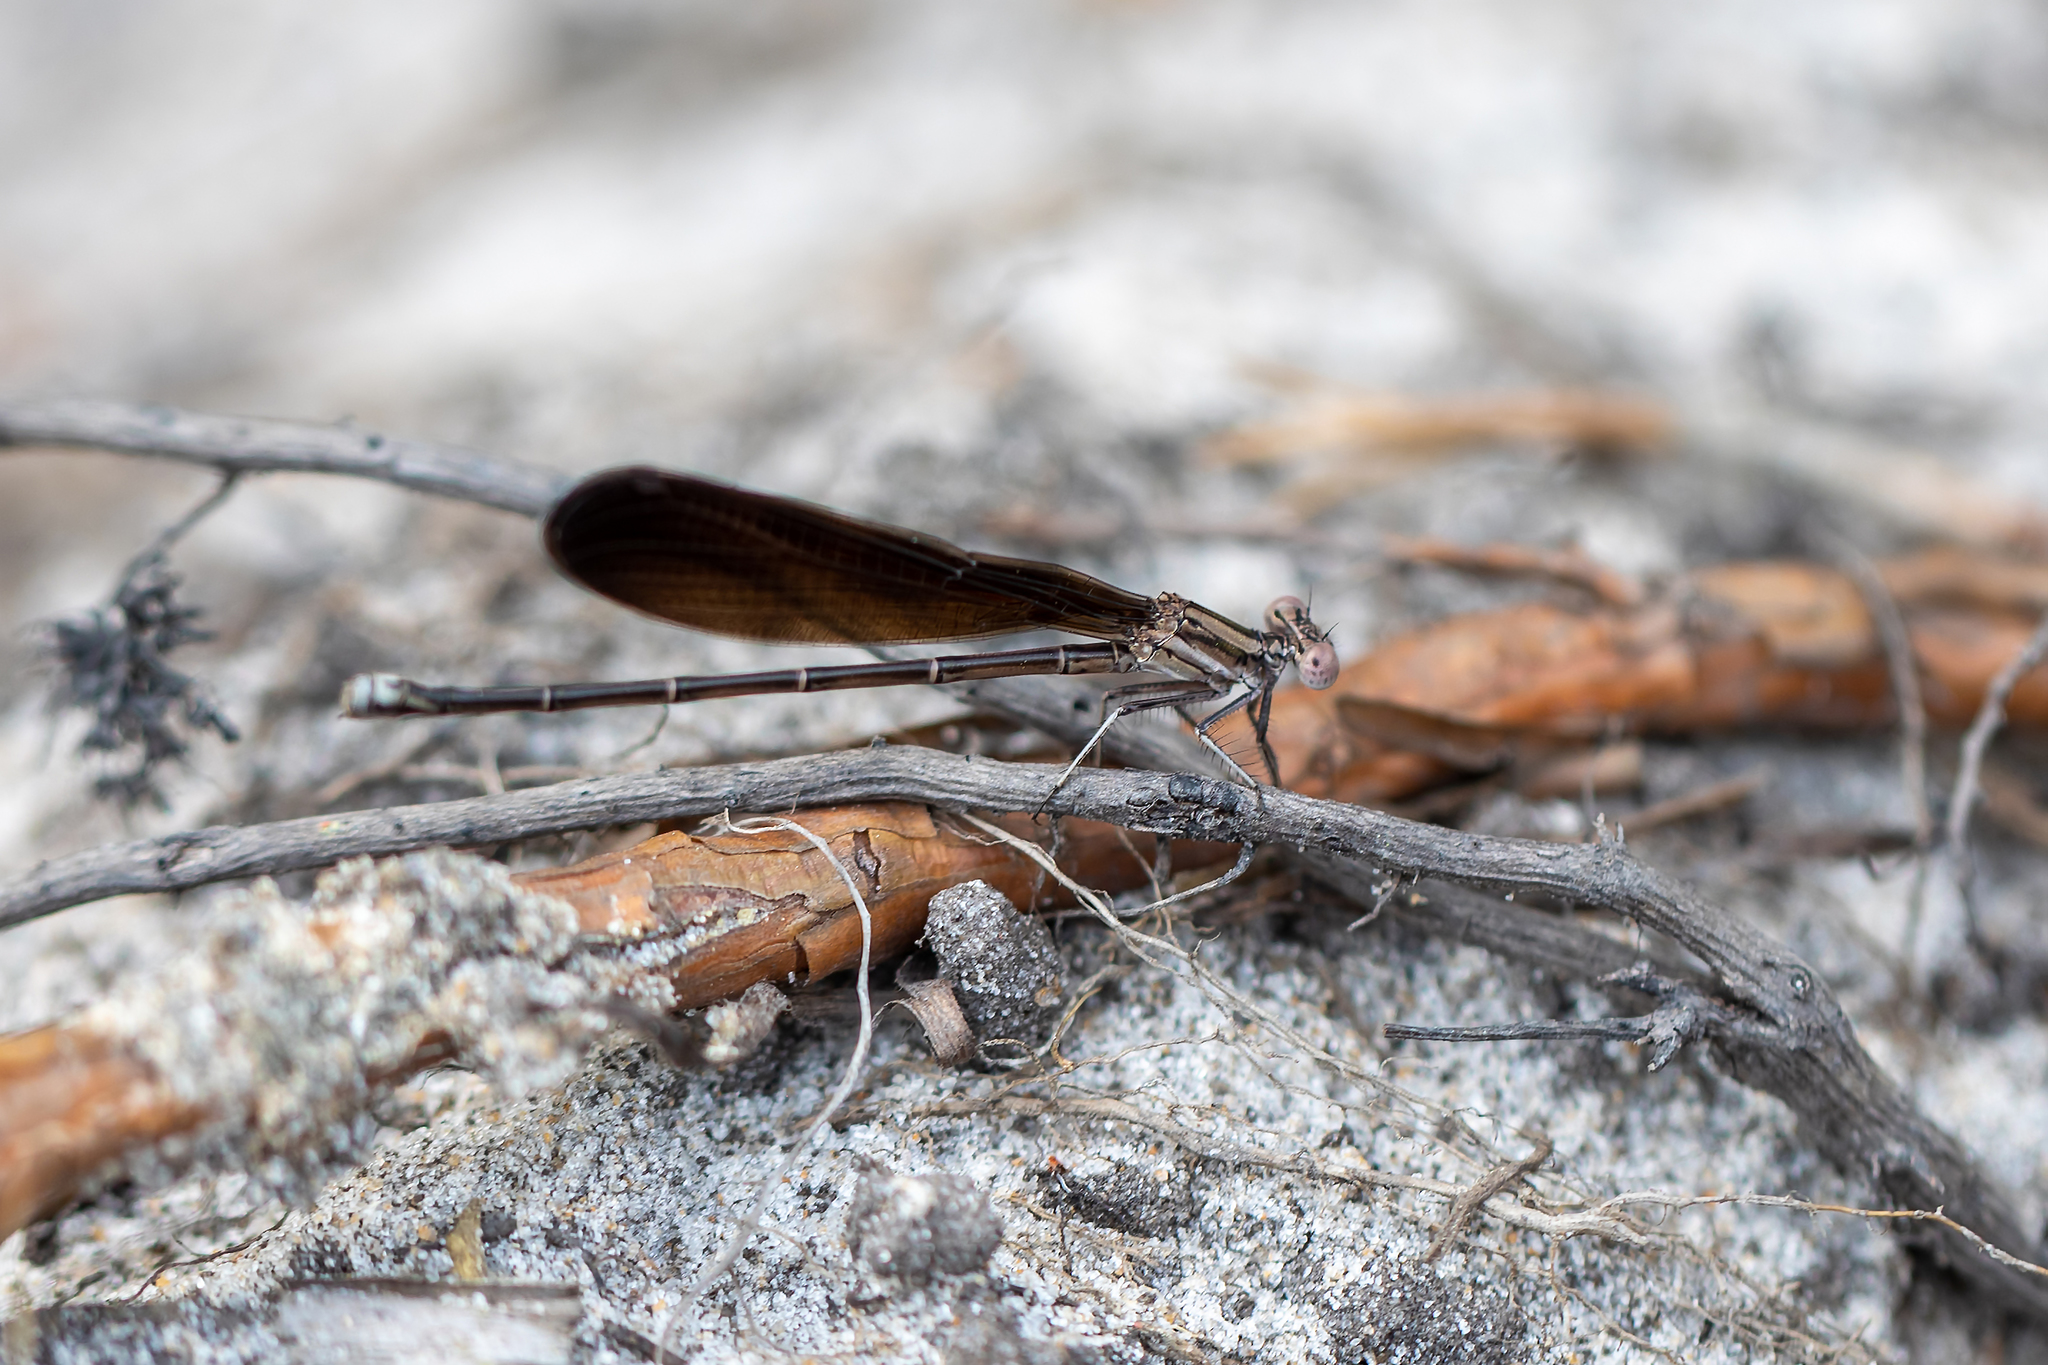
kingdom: Animalia
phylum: Arthropoda
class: Insecta
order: Odonata
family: Coenagrionidae
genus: Argia
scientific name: Argia fumipennis
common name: Variable dancer
